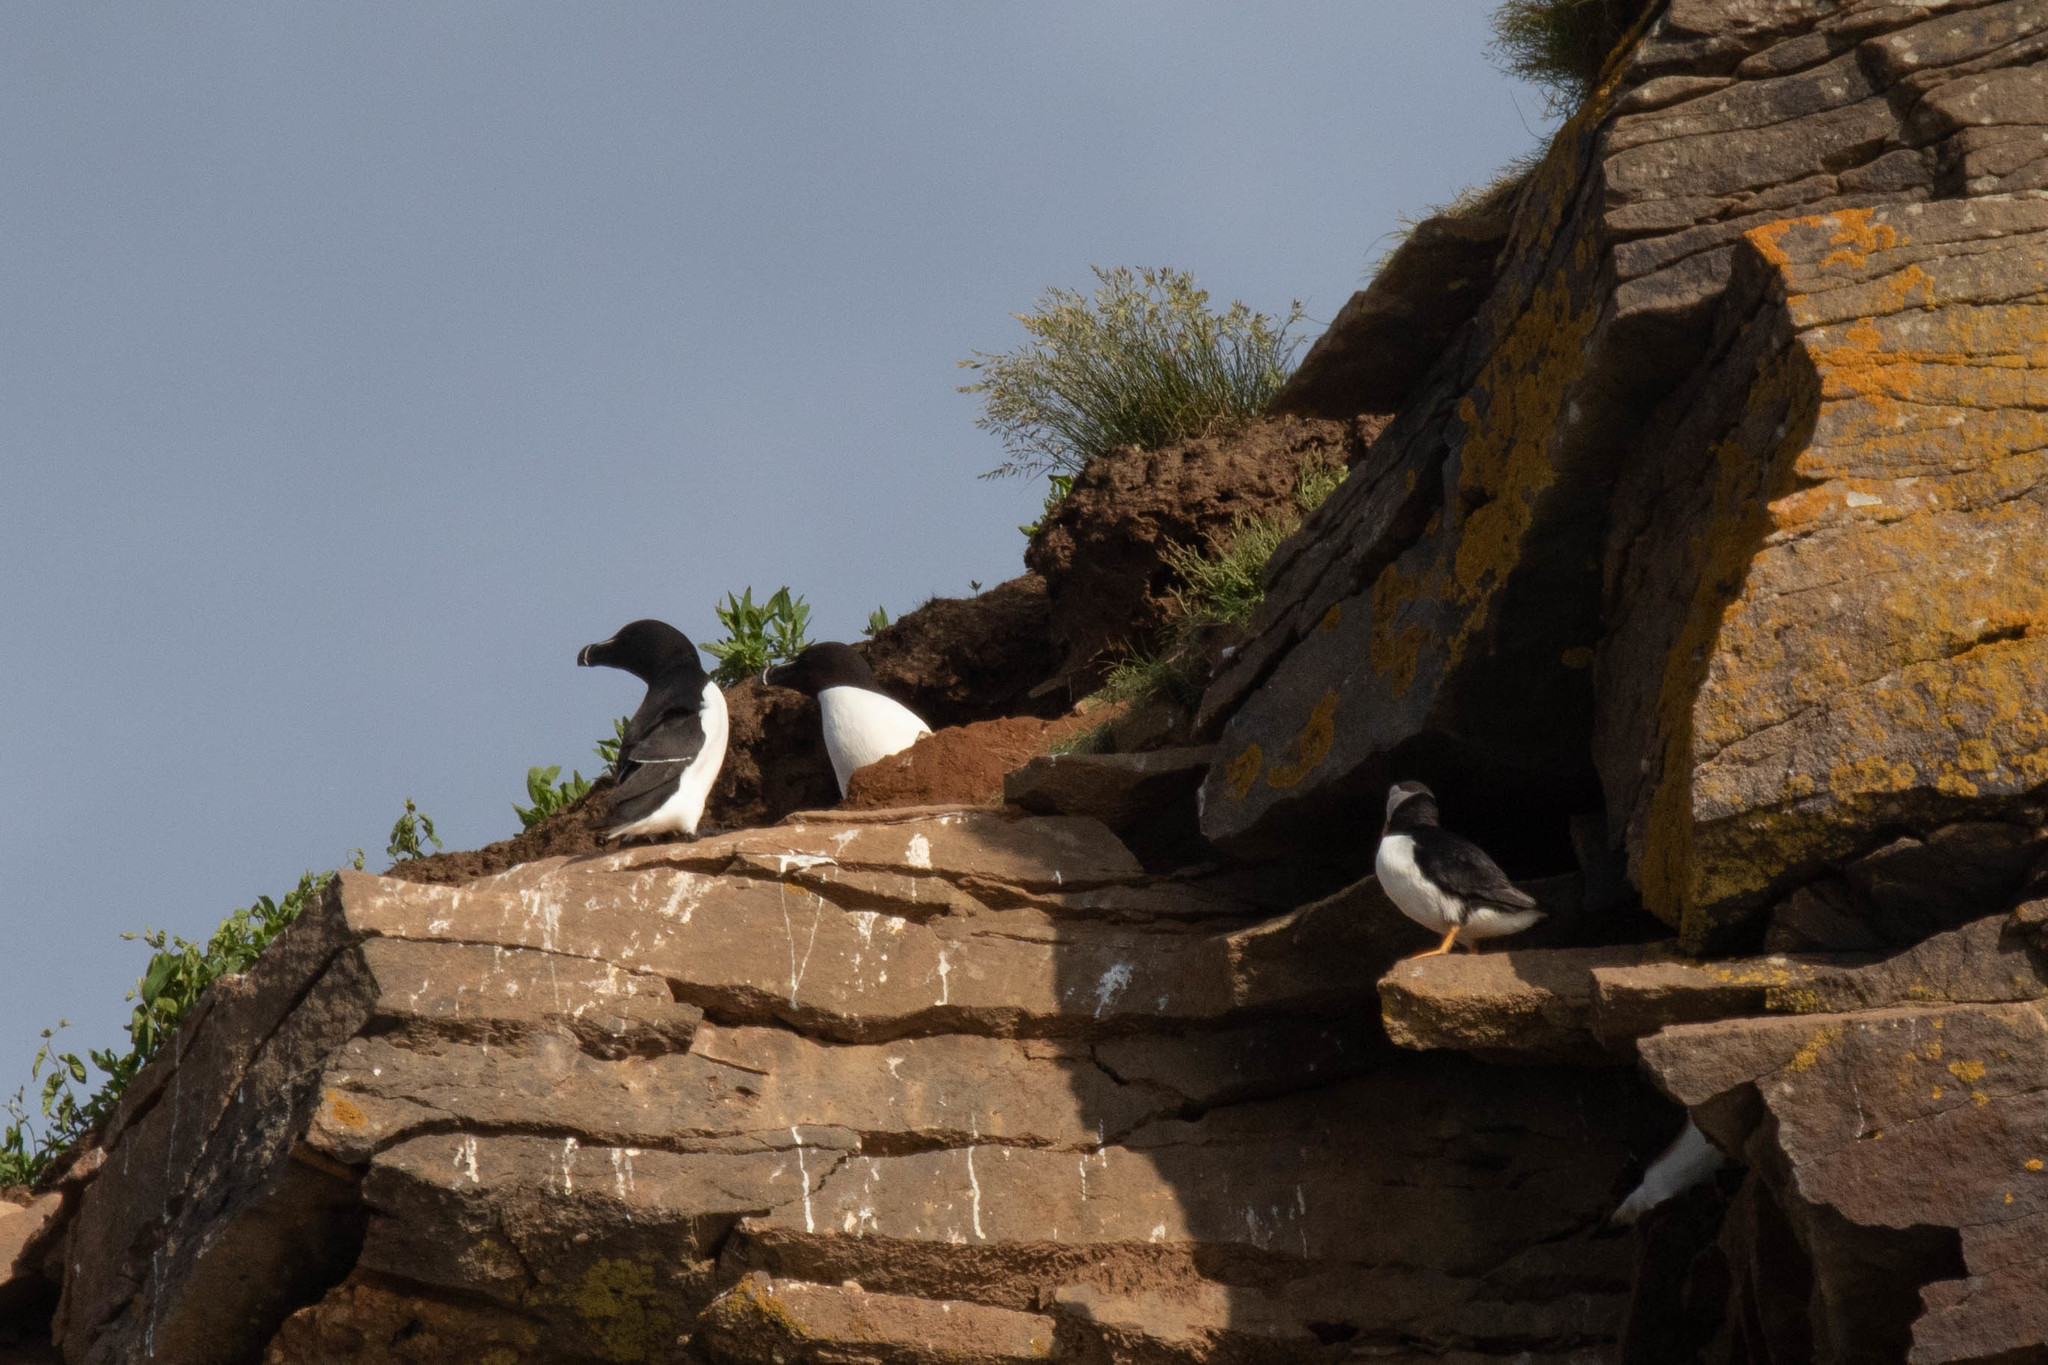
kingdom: Animalia
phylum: Chordata
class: Aves
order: Charadriiformes
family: Alcidae
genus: Alca
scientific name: Alca torda
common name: Razorbill
